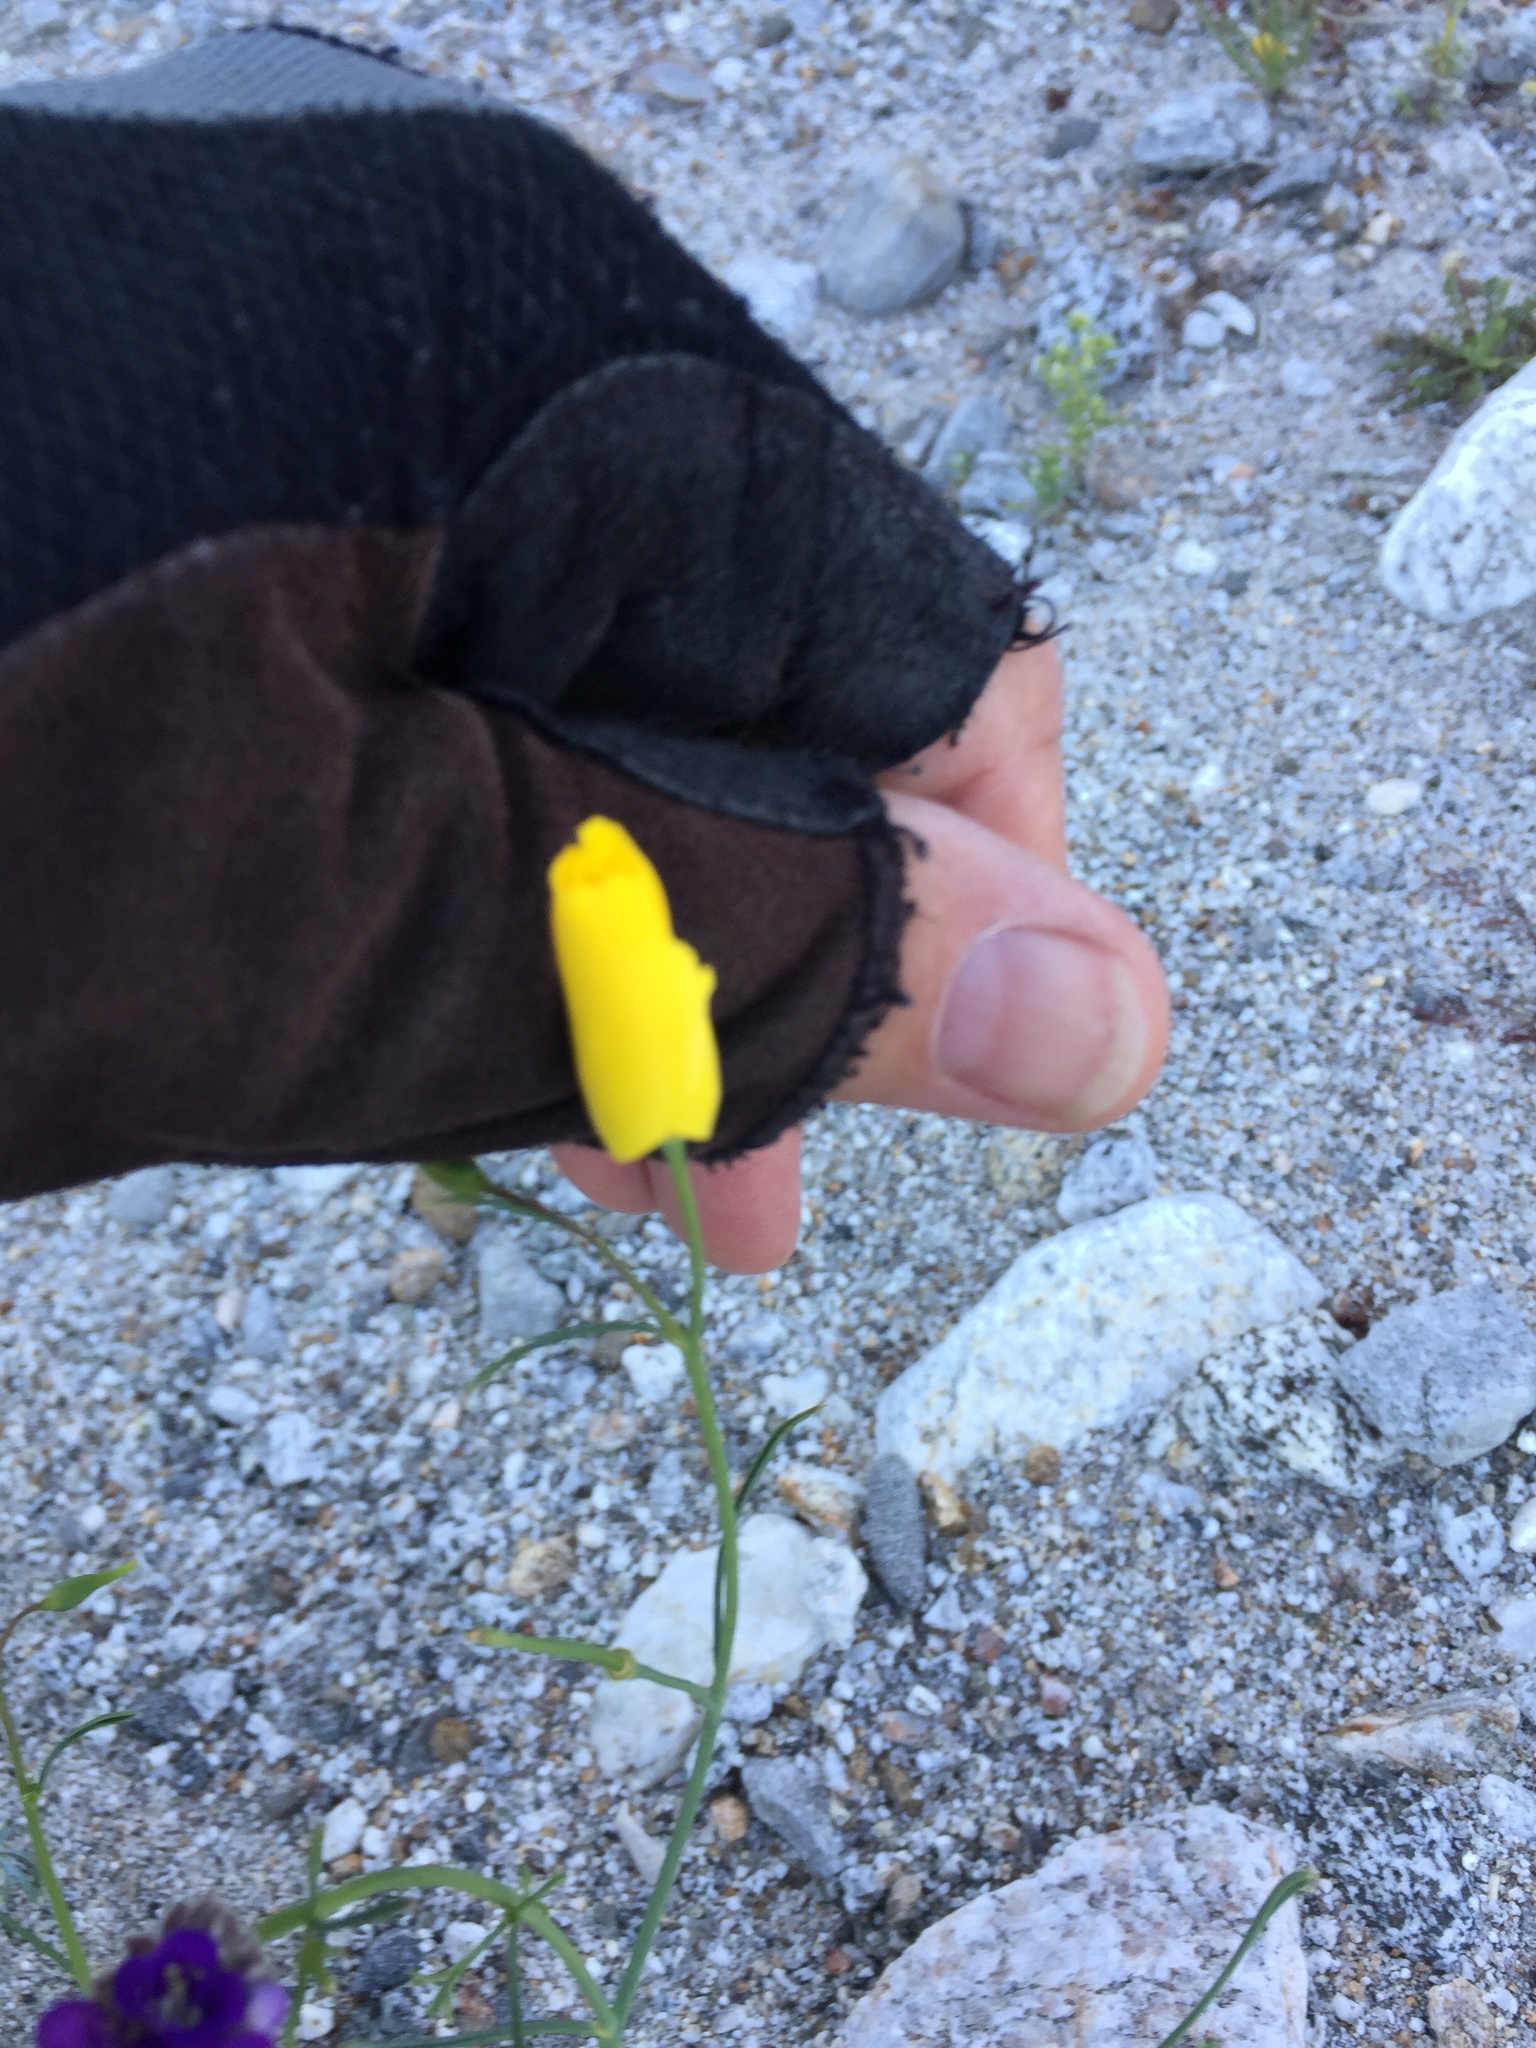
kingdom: Plantae
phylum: Tracheophyta
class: Magnoliopsida
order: Ranunculales
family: Papaveraceae
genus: Eschscholzia
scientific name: Eschscholzia parishii
